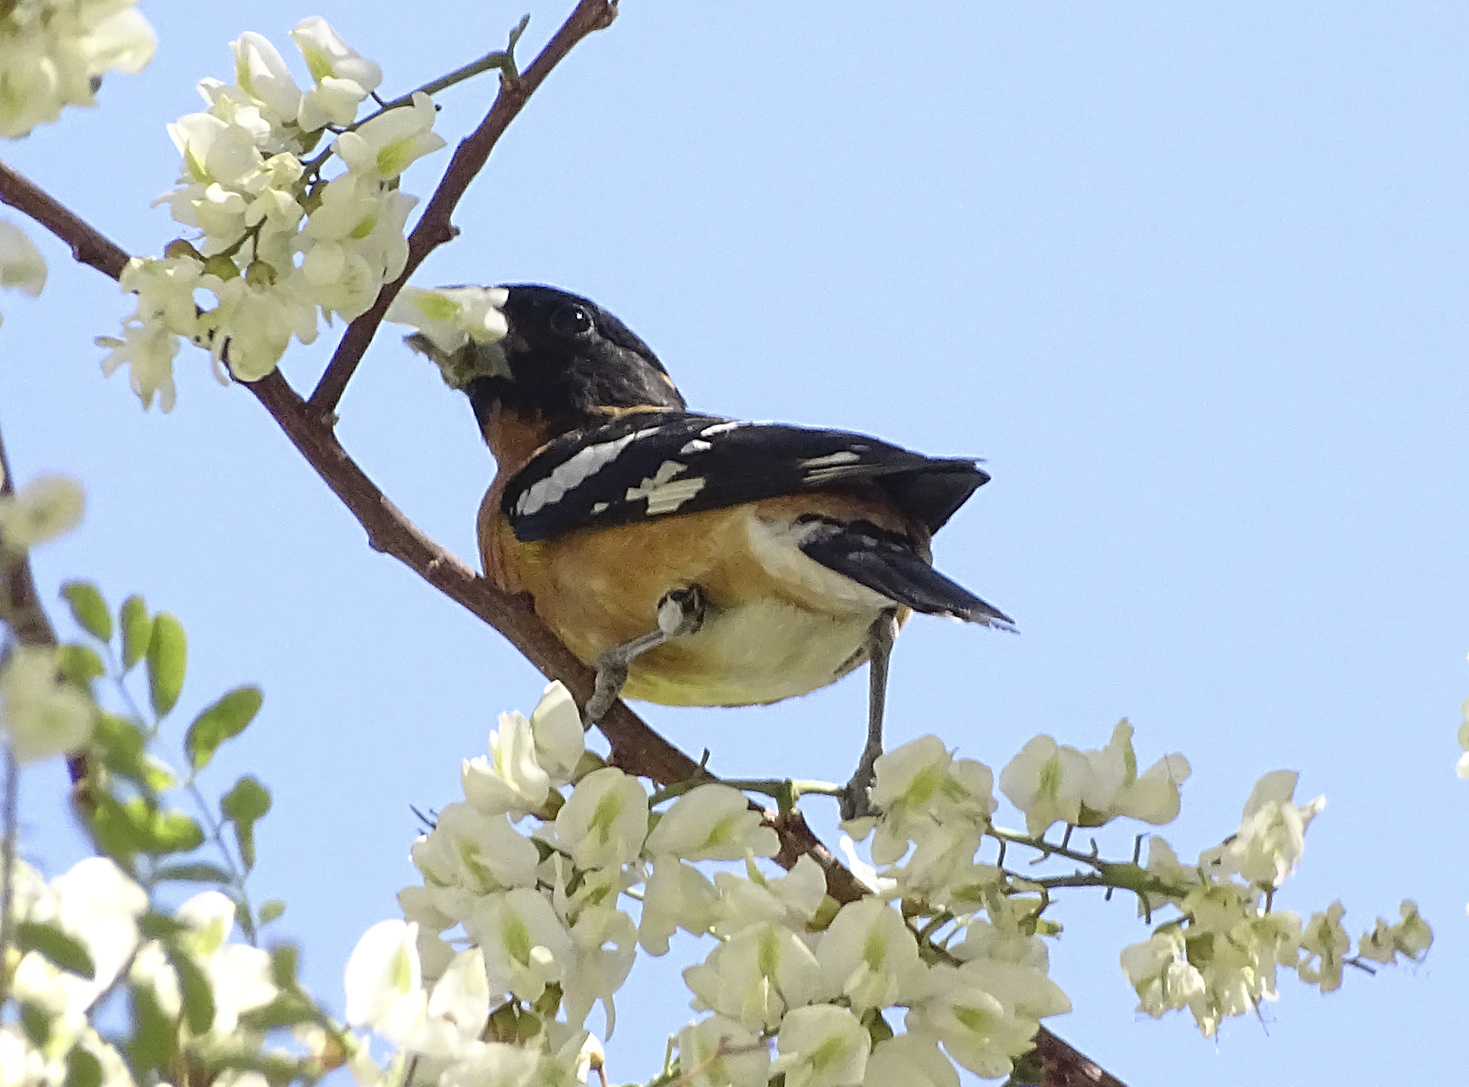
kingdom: Animalia
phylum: Chordata
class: Aves
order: Passeriformes
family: Cardinalidae
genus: Pheucticus
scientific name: Pheucticus melanocephalus
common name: Black-headed grosbeak
